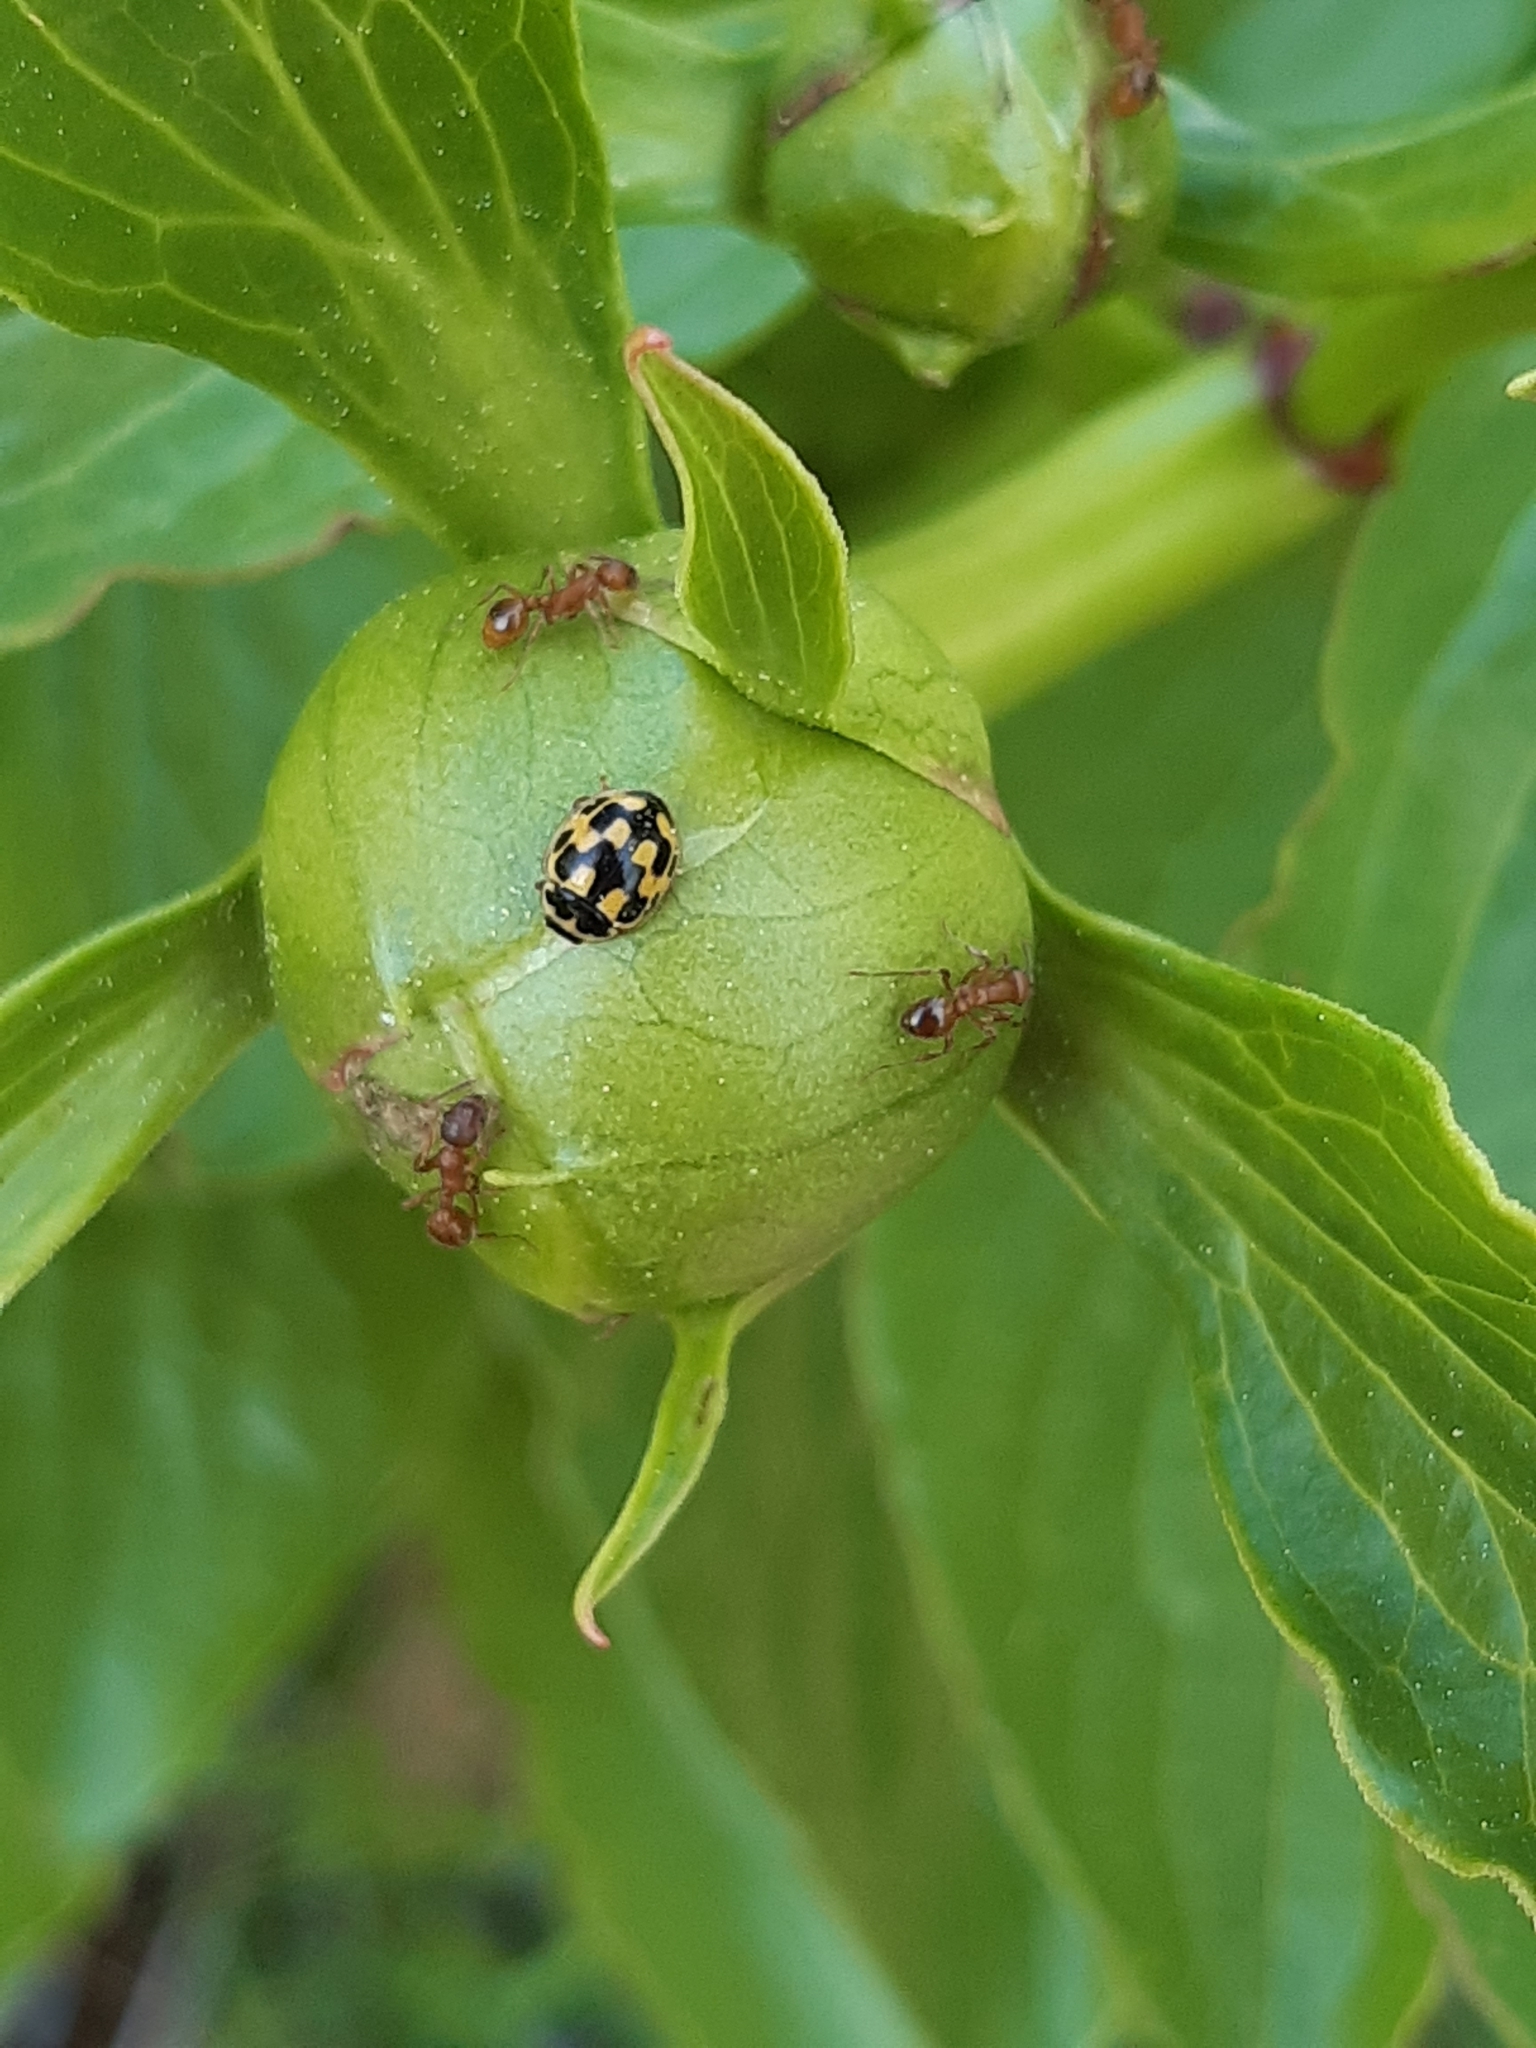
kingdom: Animalia
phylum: Arthropoda
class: Insecta
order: Coleoptera
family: Coccinellidae
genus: Propylaea
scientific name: Propylaea quatuordecimpunctata
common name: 14-spotted ladybird beetle
